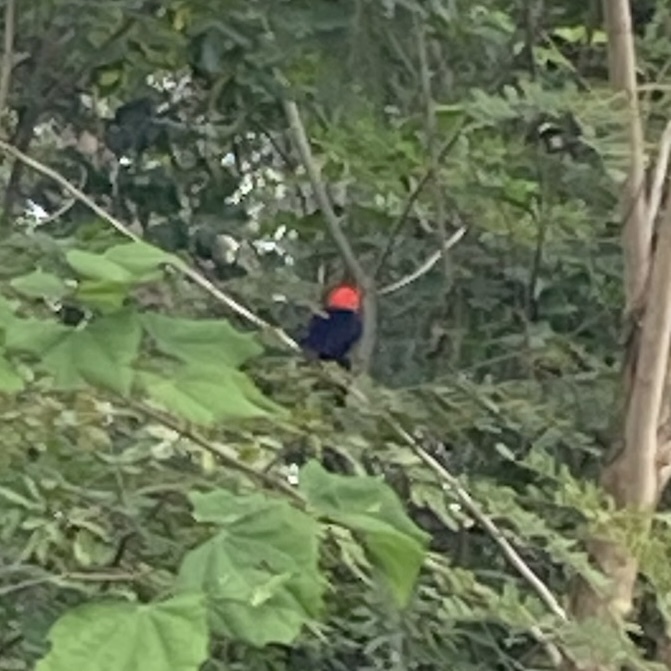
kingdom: Animalia
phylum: Chordata
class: Aves
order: Passeriformes
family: Pipridae
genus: Pipra
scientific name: Pipra mentalis
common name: Red-capped manakin
